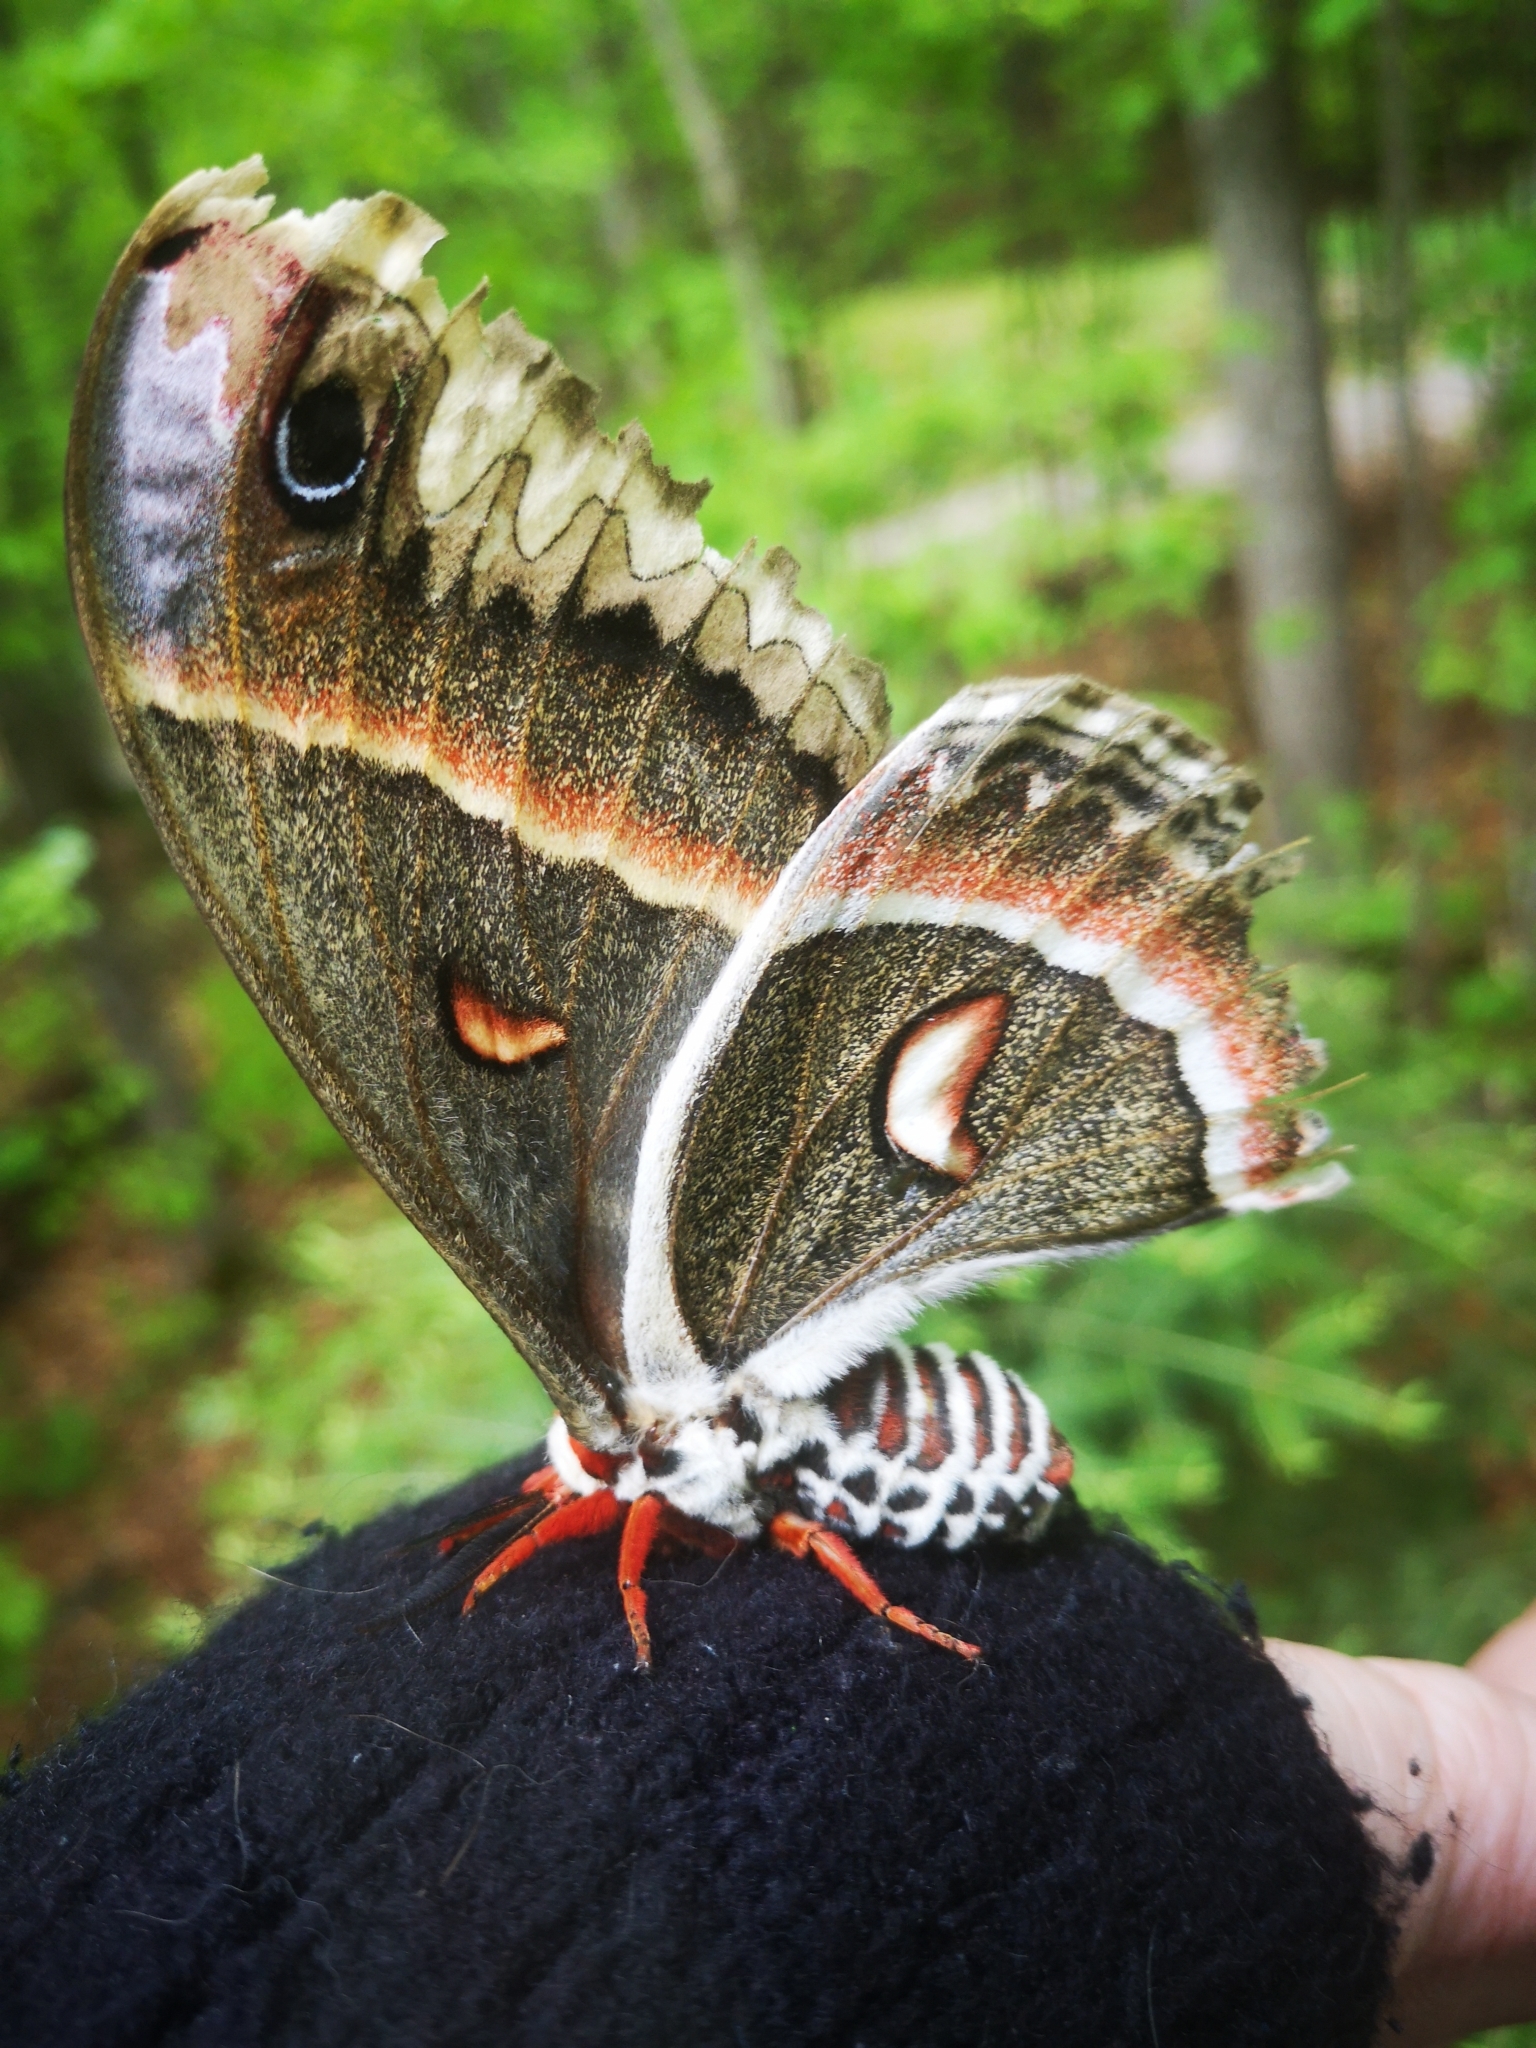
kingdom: Animalia
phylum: Arthropoda
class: Insecta
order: Lepidoptera
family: Saturniidae
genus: Hyalophora
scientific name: Hyalophora cecropia
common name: Cecropia silkmoth
